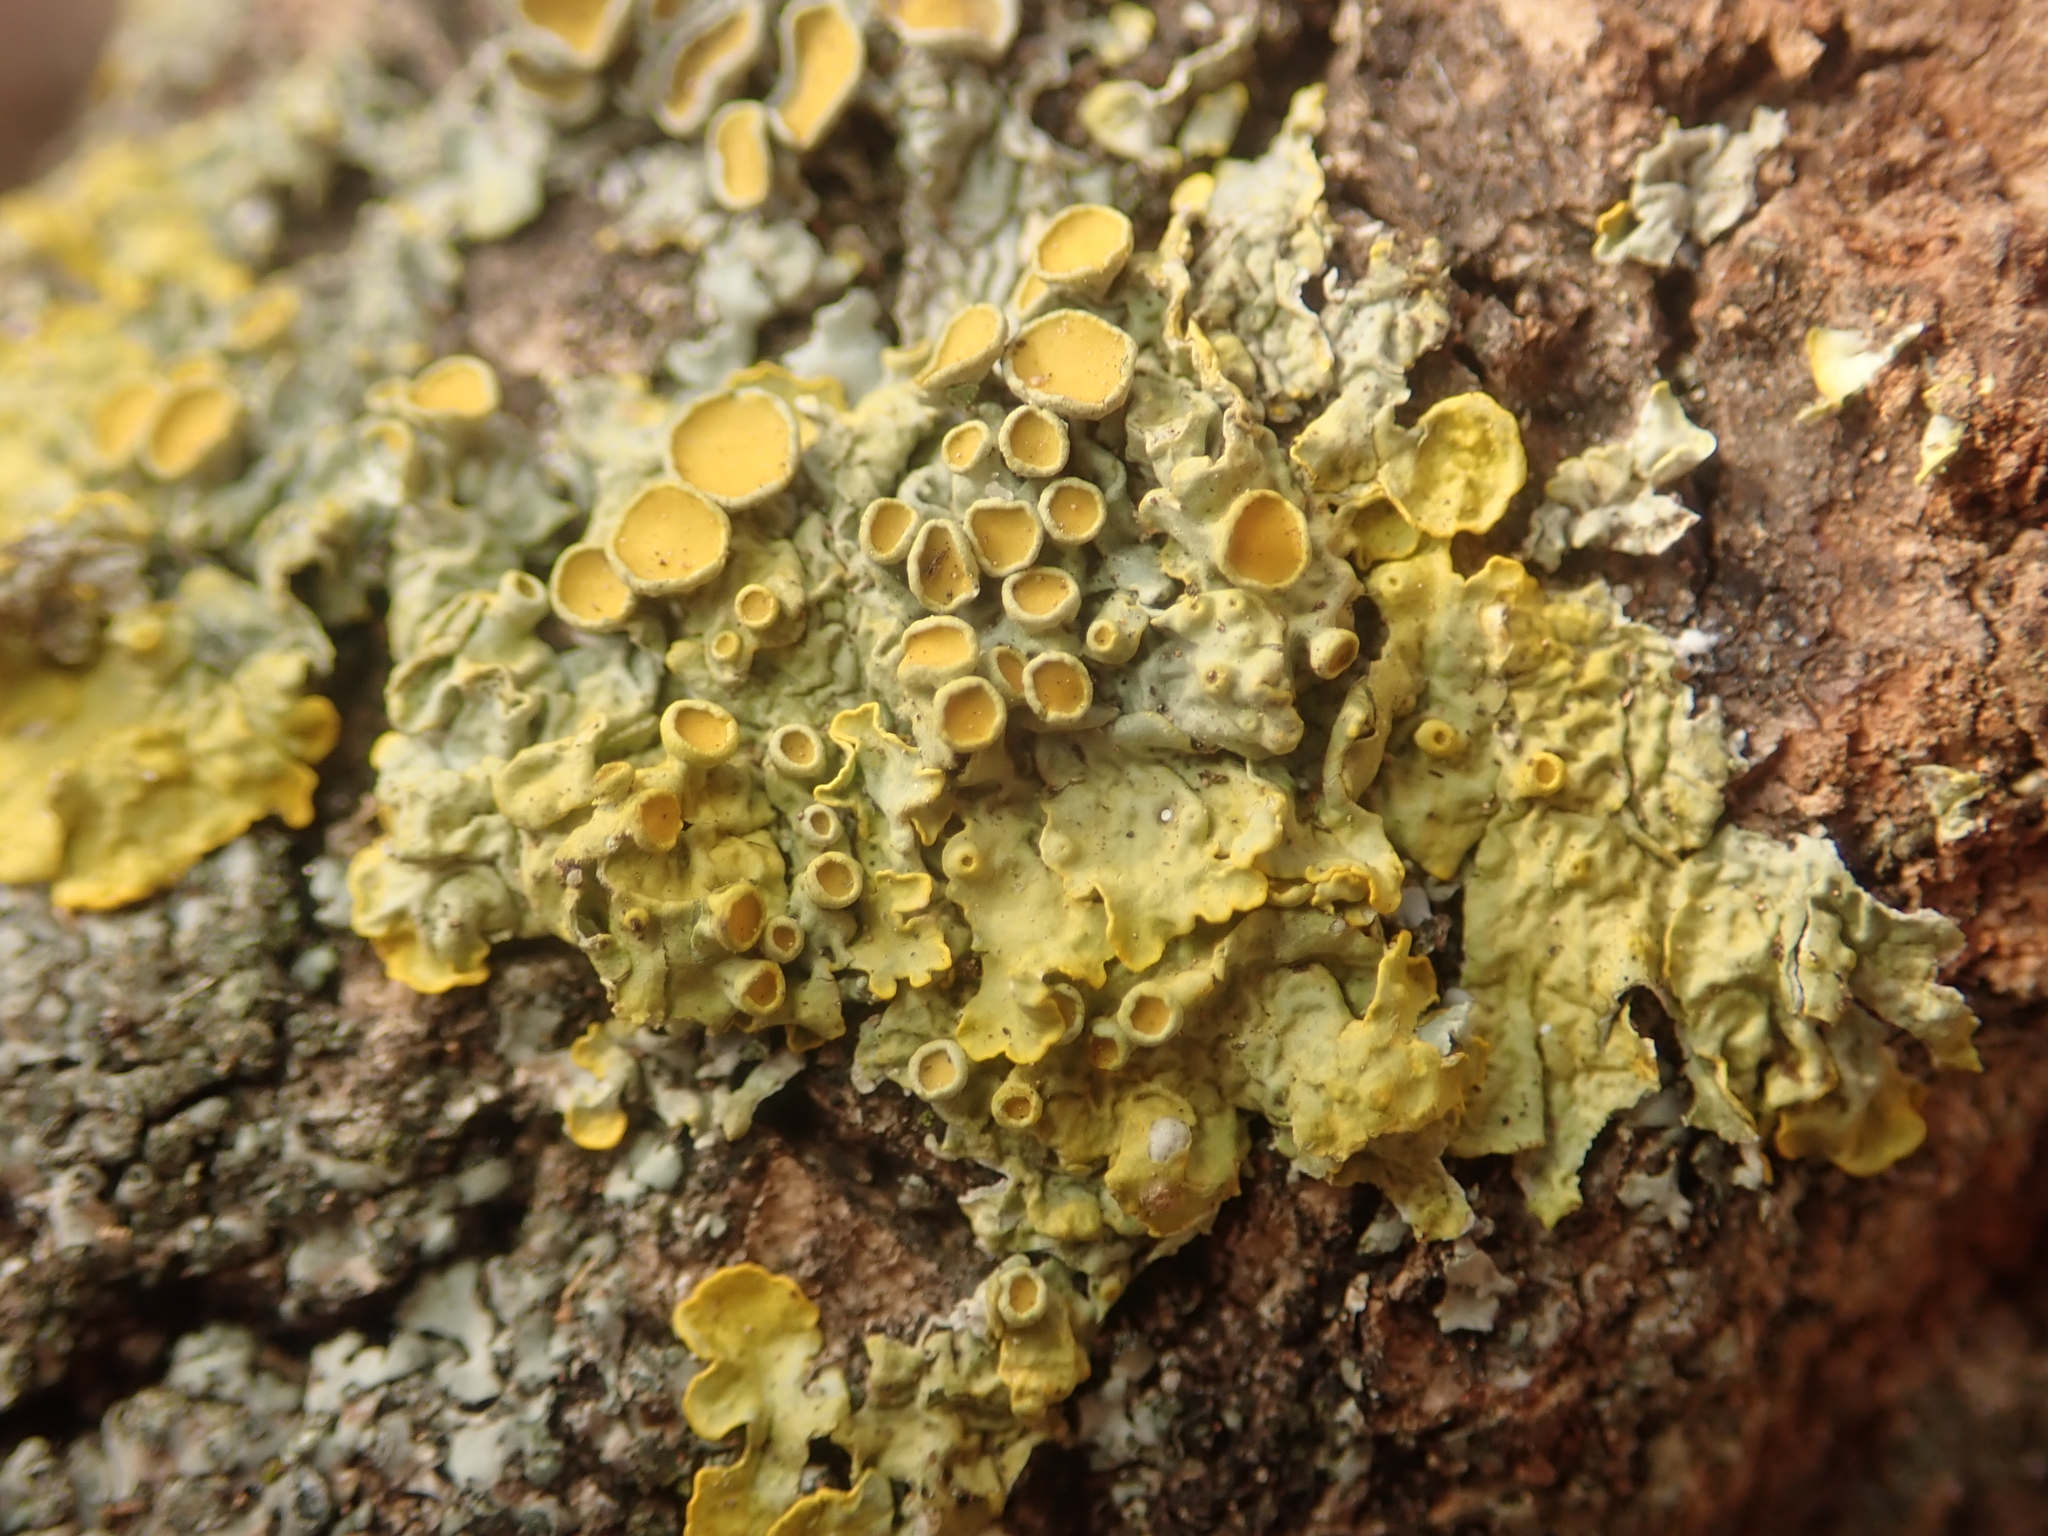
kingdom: Fungi
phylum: Ascomycota
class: Lecanoromycetes
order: Teloschistales
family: Teloschistaceae
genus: Xanthoria
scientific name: Xanthoria parietina
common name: Common orange lichen
